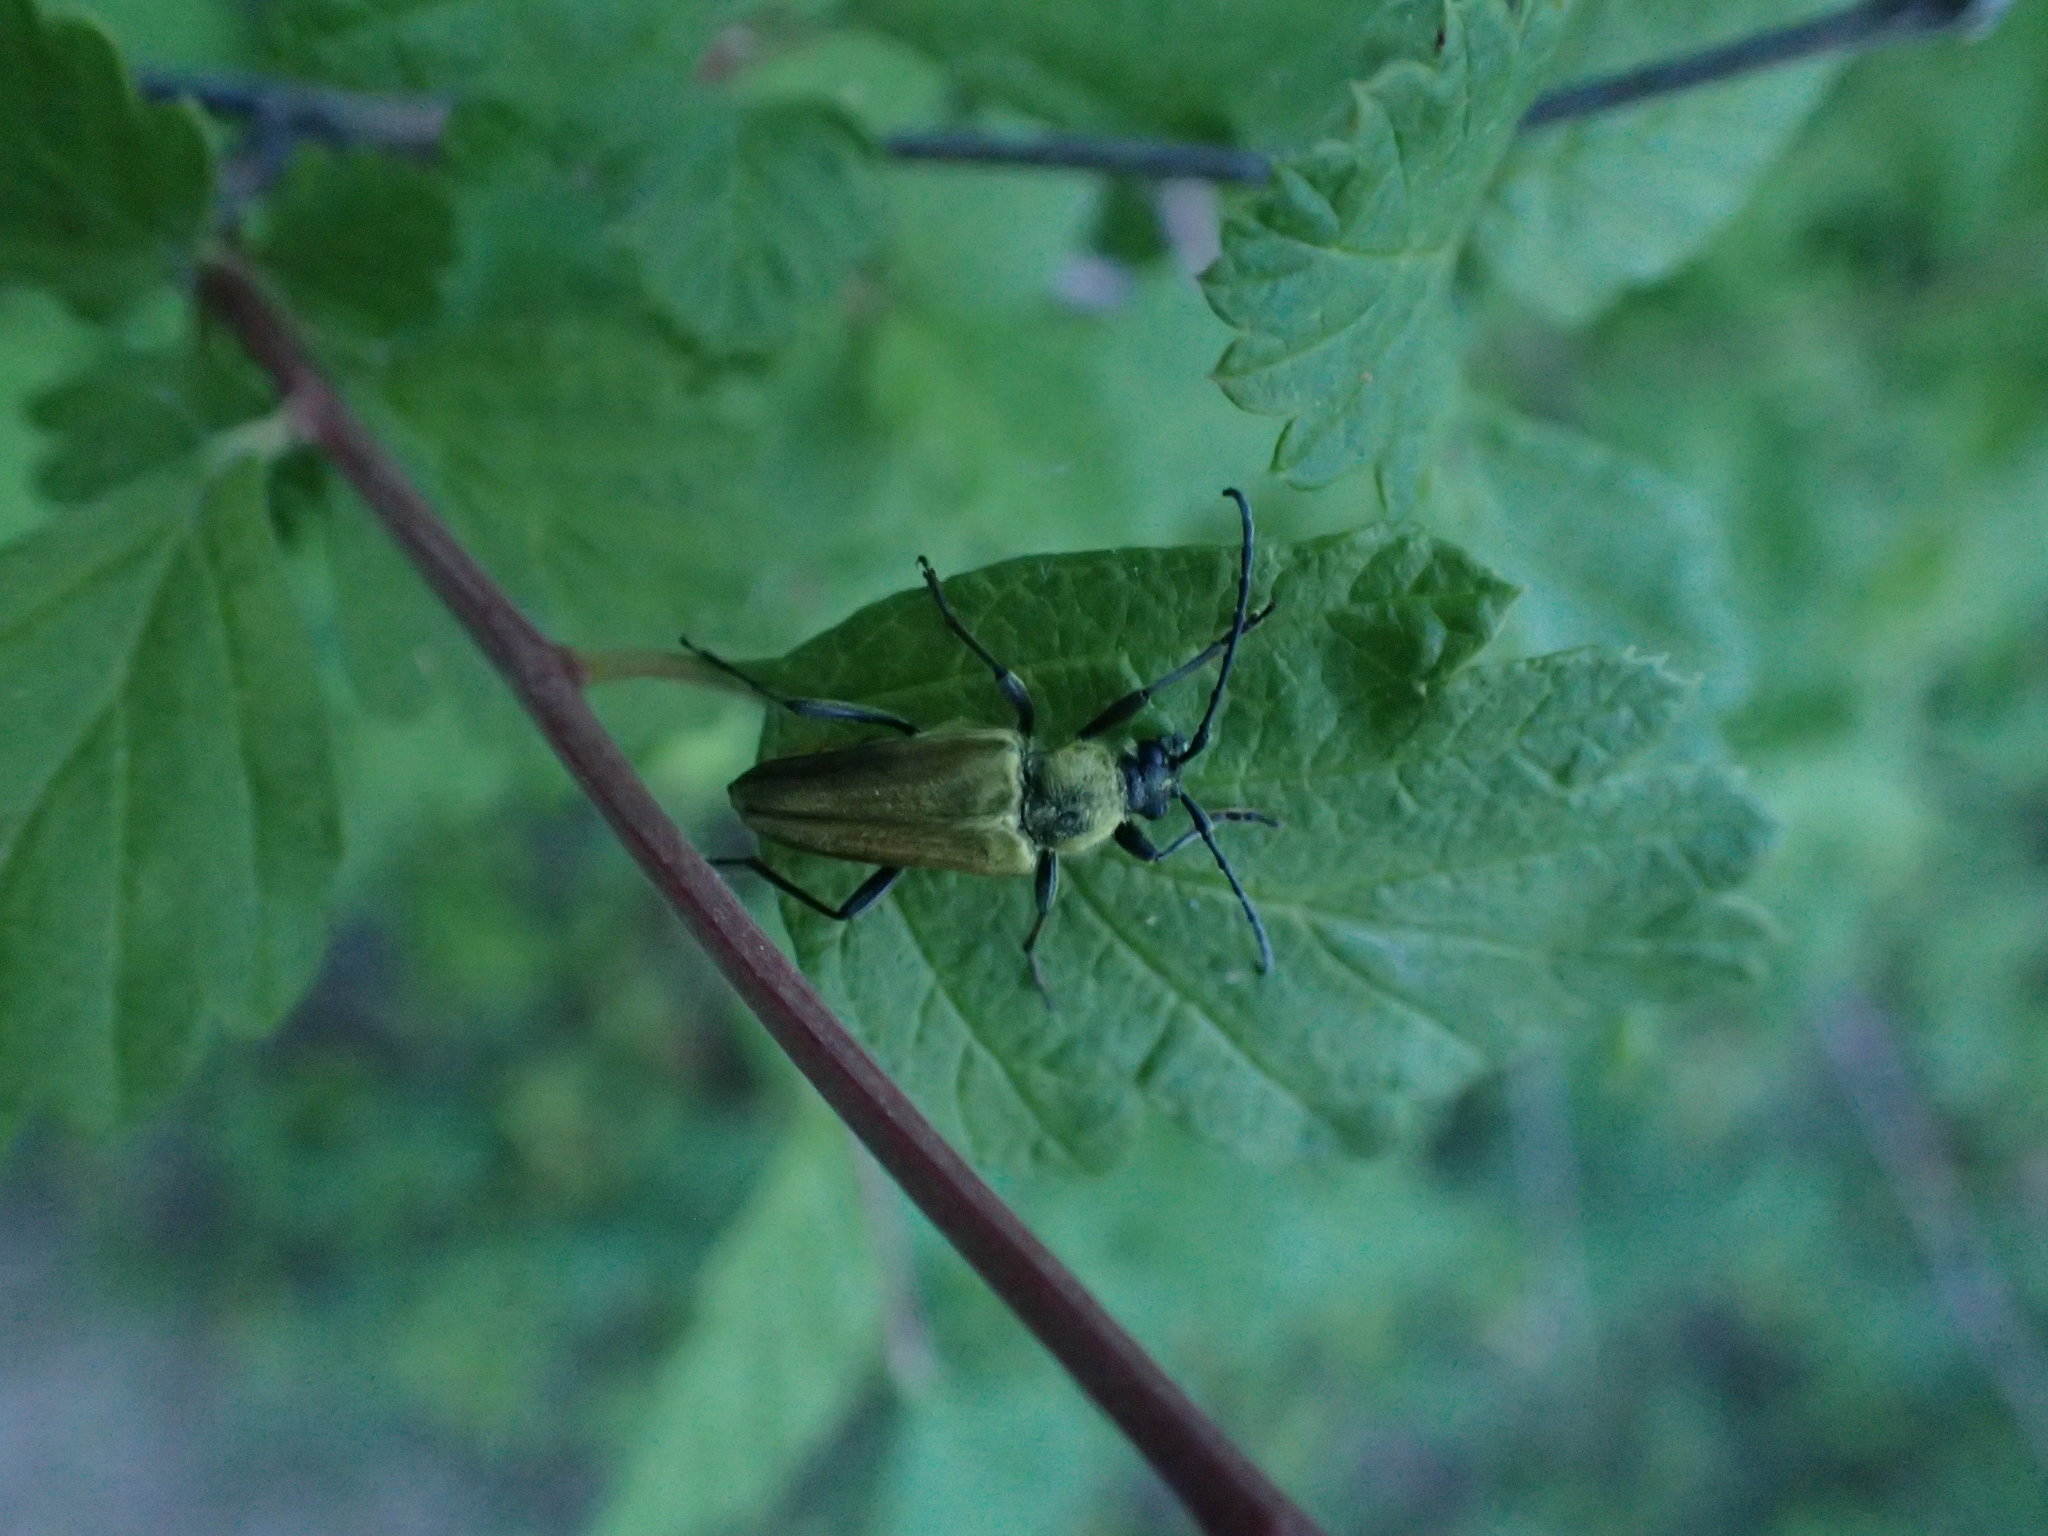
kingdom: Animalia
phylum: Arthropoda
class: Insecta
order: Coleoptera
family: Cerambycidae
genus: Cosmosalia
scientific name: Cosmosalia chrysocoma
